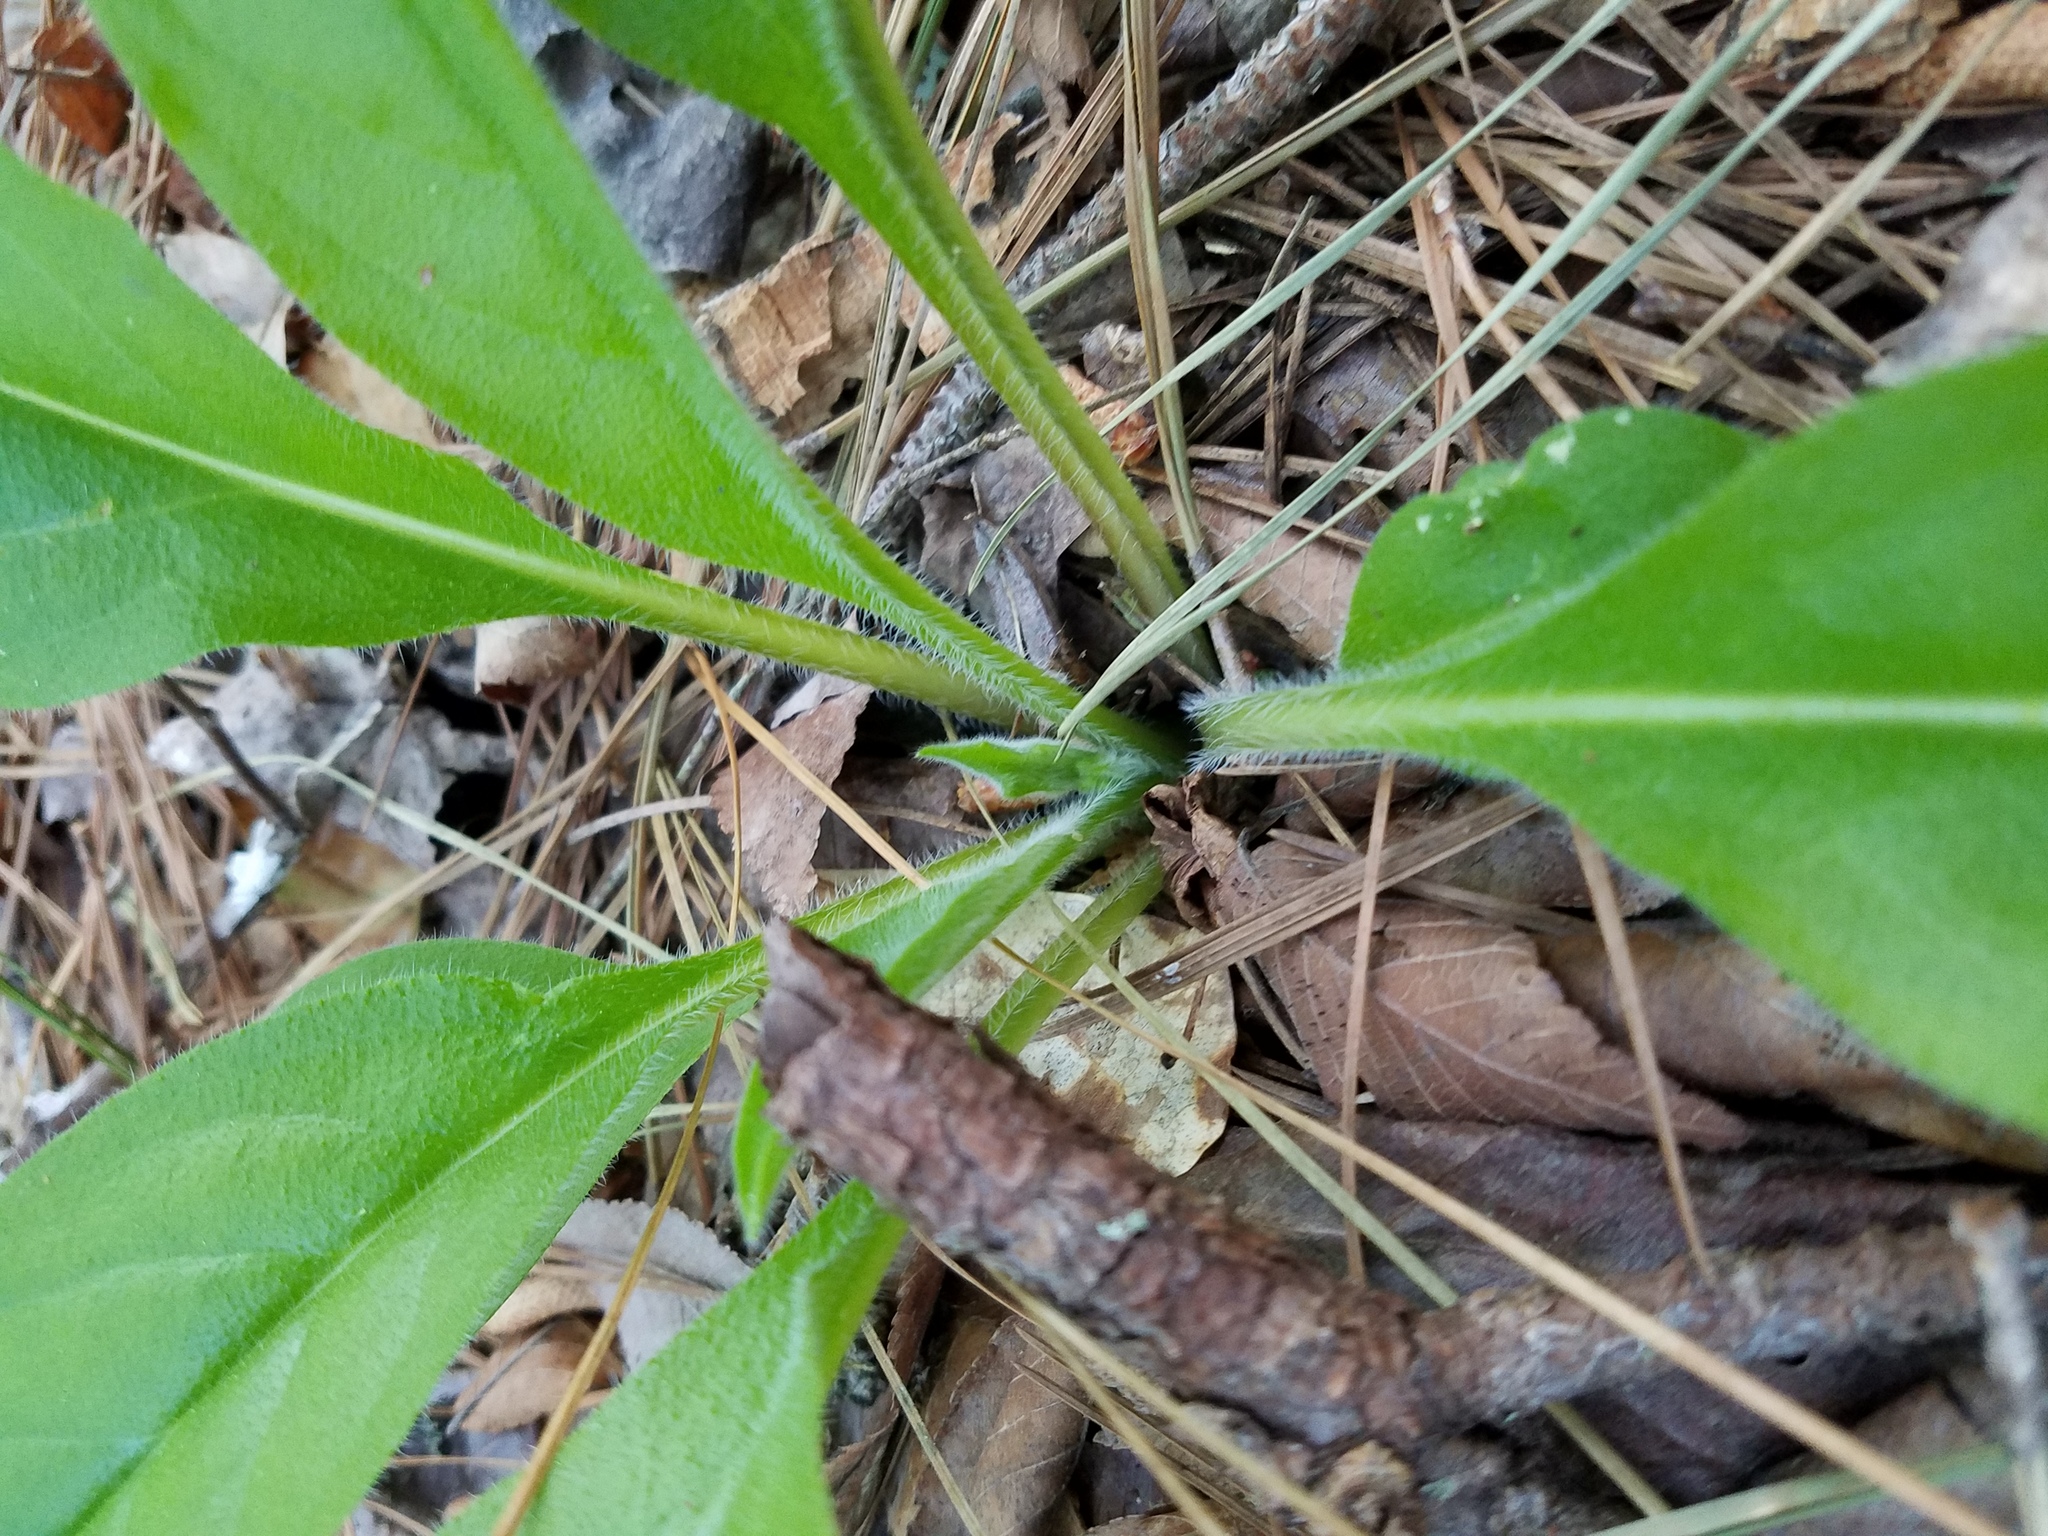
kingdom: Plantae
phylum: Tracheophyta
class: Magnoliopsida
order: Boraginales
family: Boraginaceae
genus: Andersonglossum
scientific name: Andersonglossum virginianum
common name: Wild comfrey
